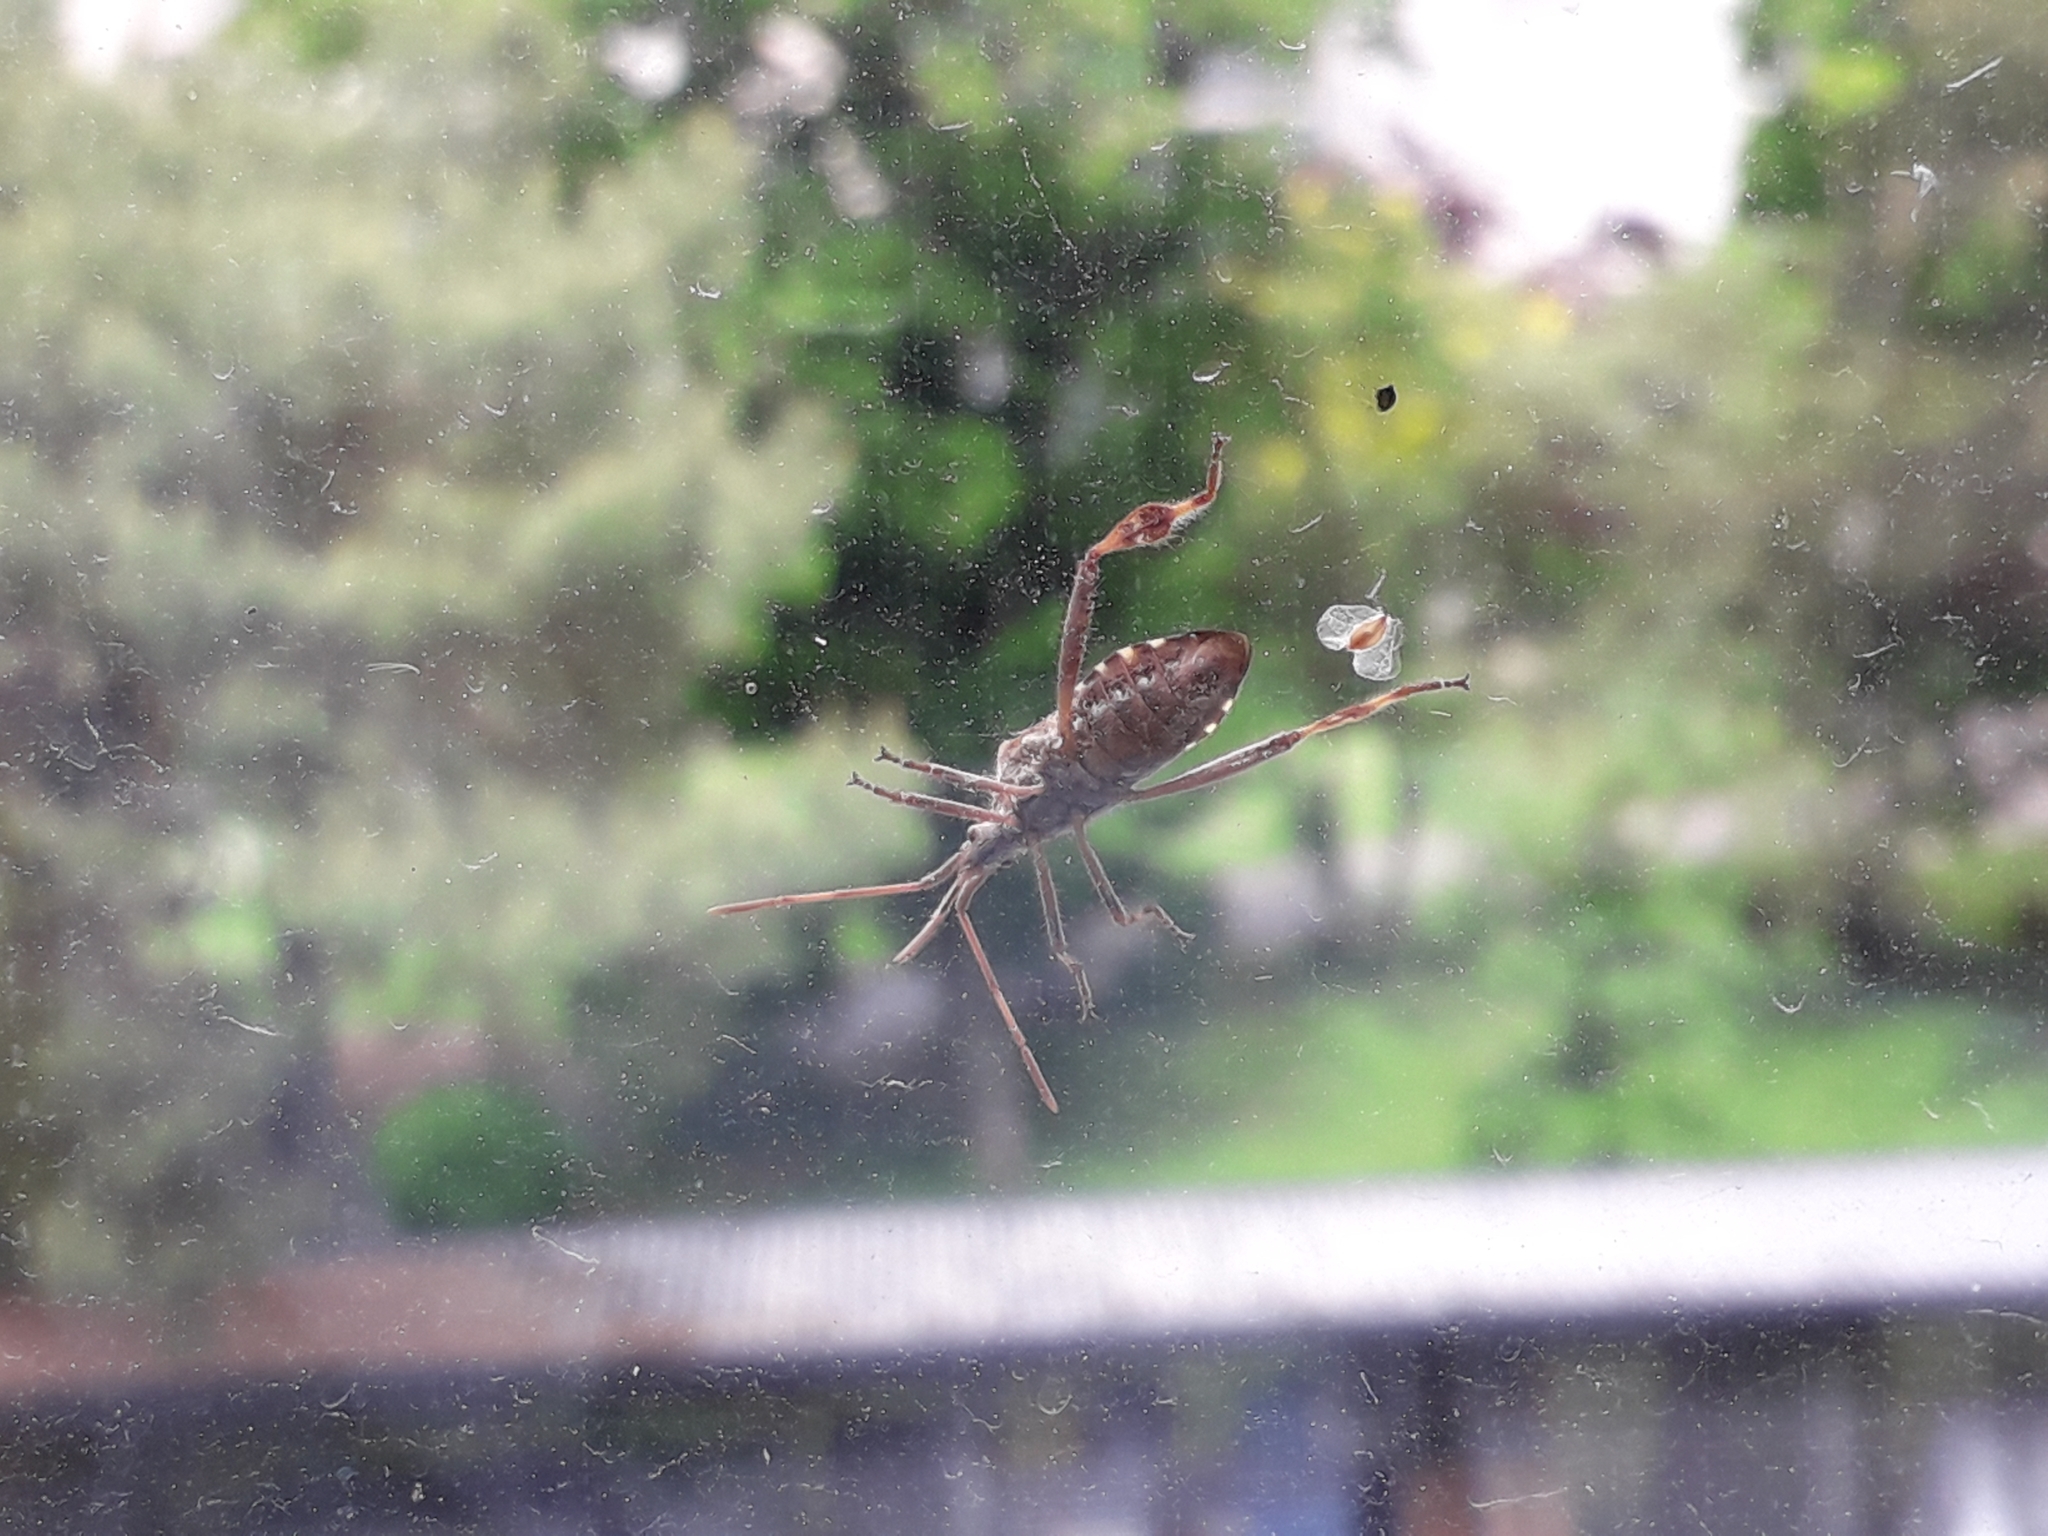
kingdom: Animalia
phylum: Arthropoda
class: Insecta
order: Hemiptera
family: Coreidae
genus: Leptoglossus
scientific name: Leptoglossus occidentalis
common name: Western conifer-seed bug
